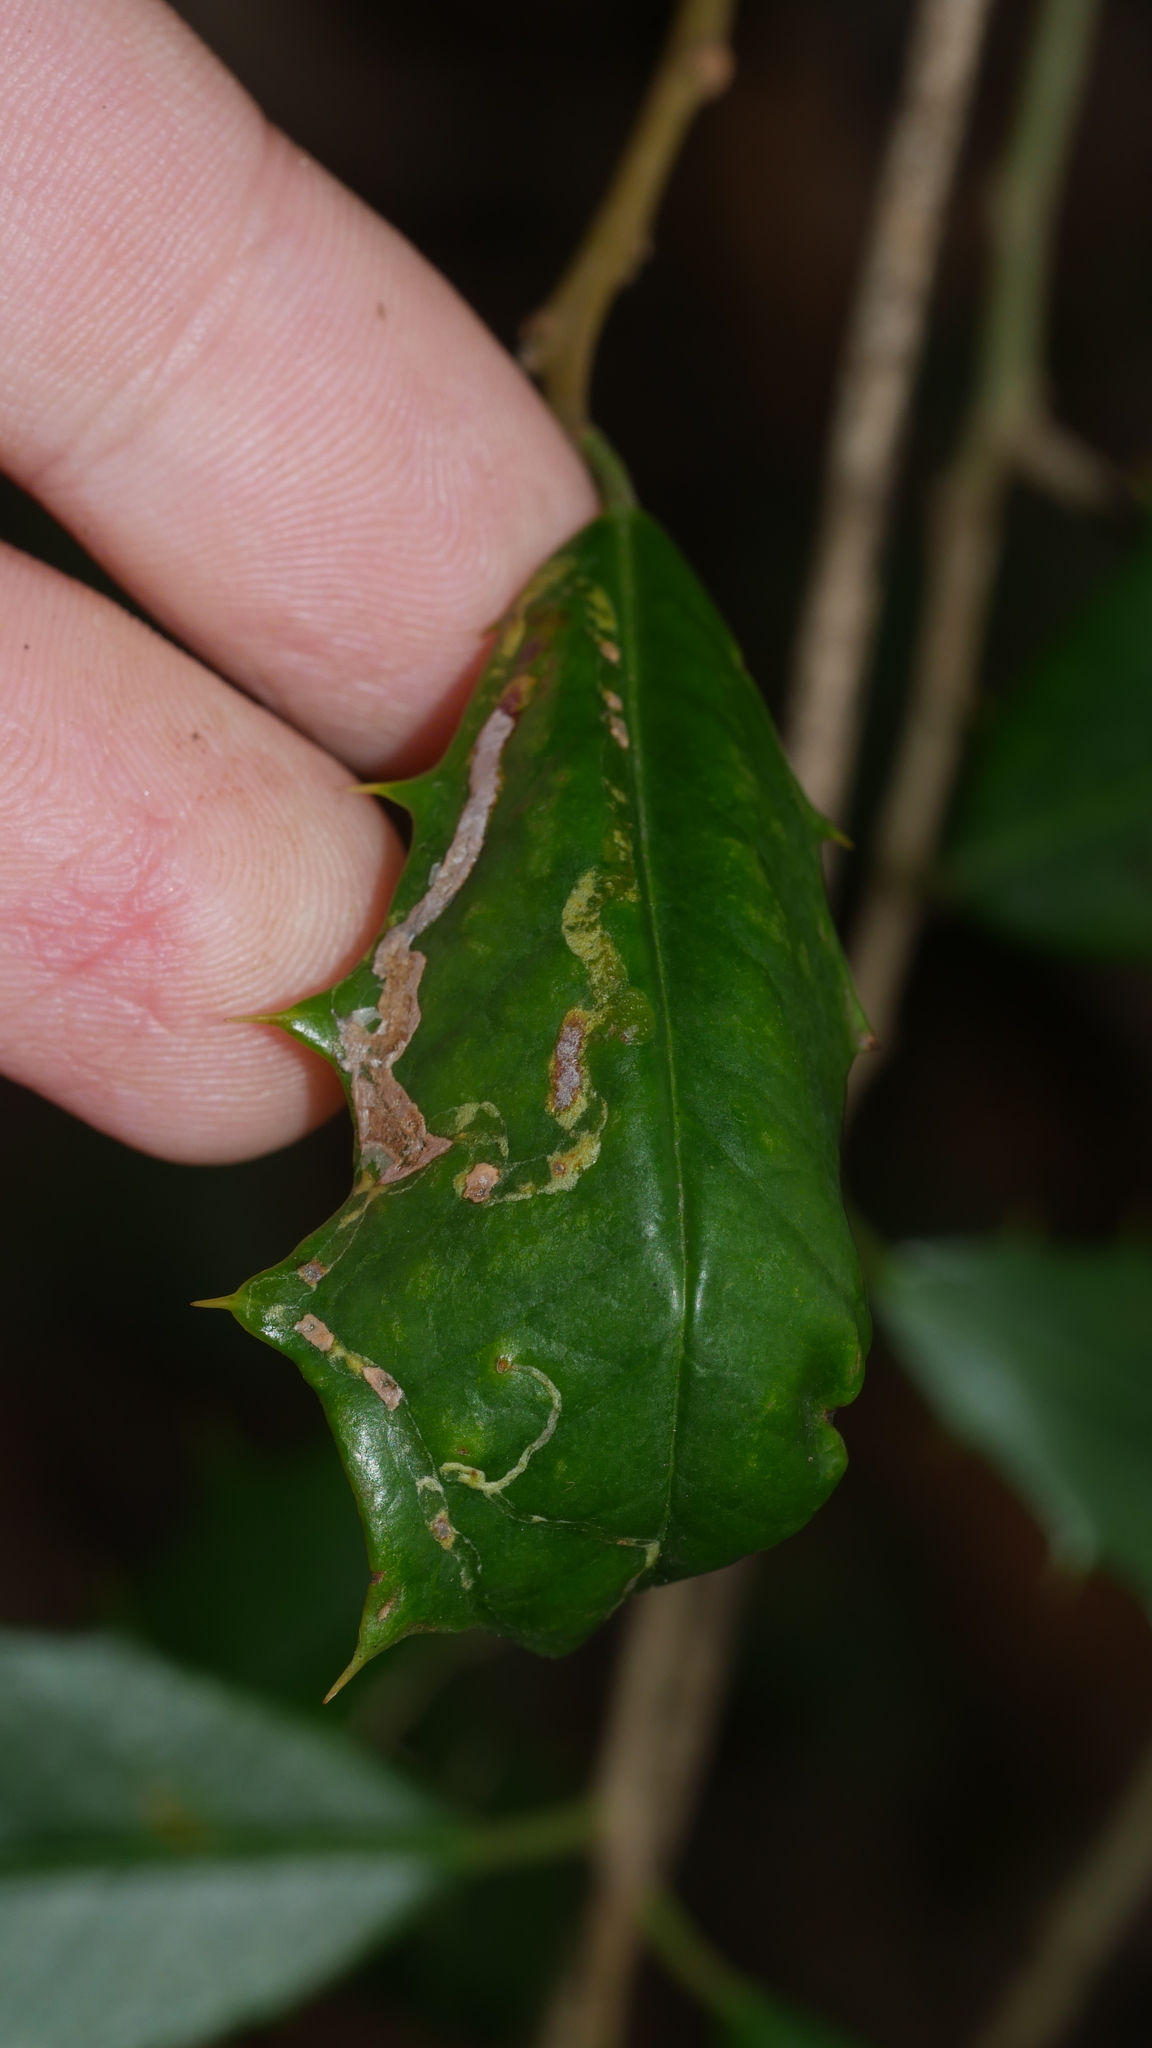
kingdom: Animalia
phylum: Arthropoda
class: Insecta
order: Diptera
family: Agromyzidae
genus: Phytomyza
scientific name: Phytomyza opacae
